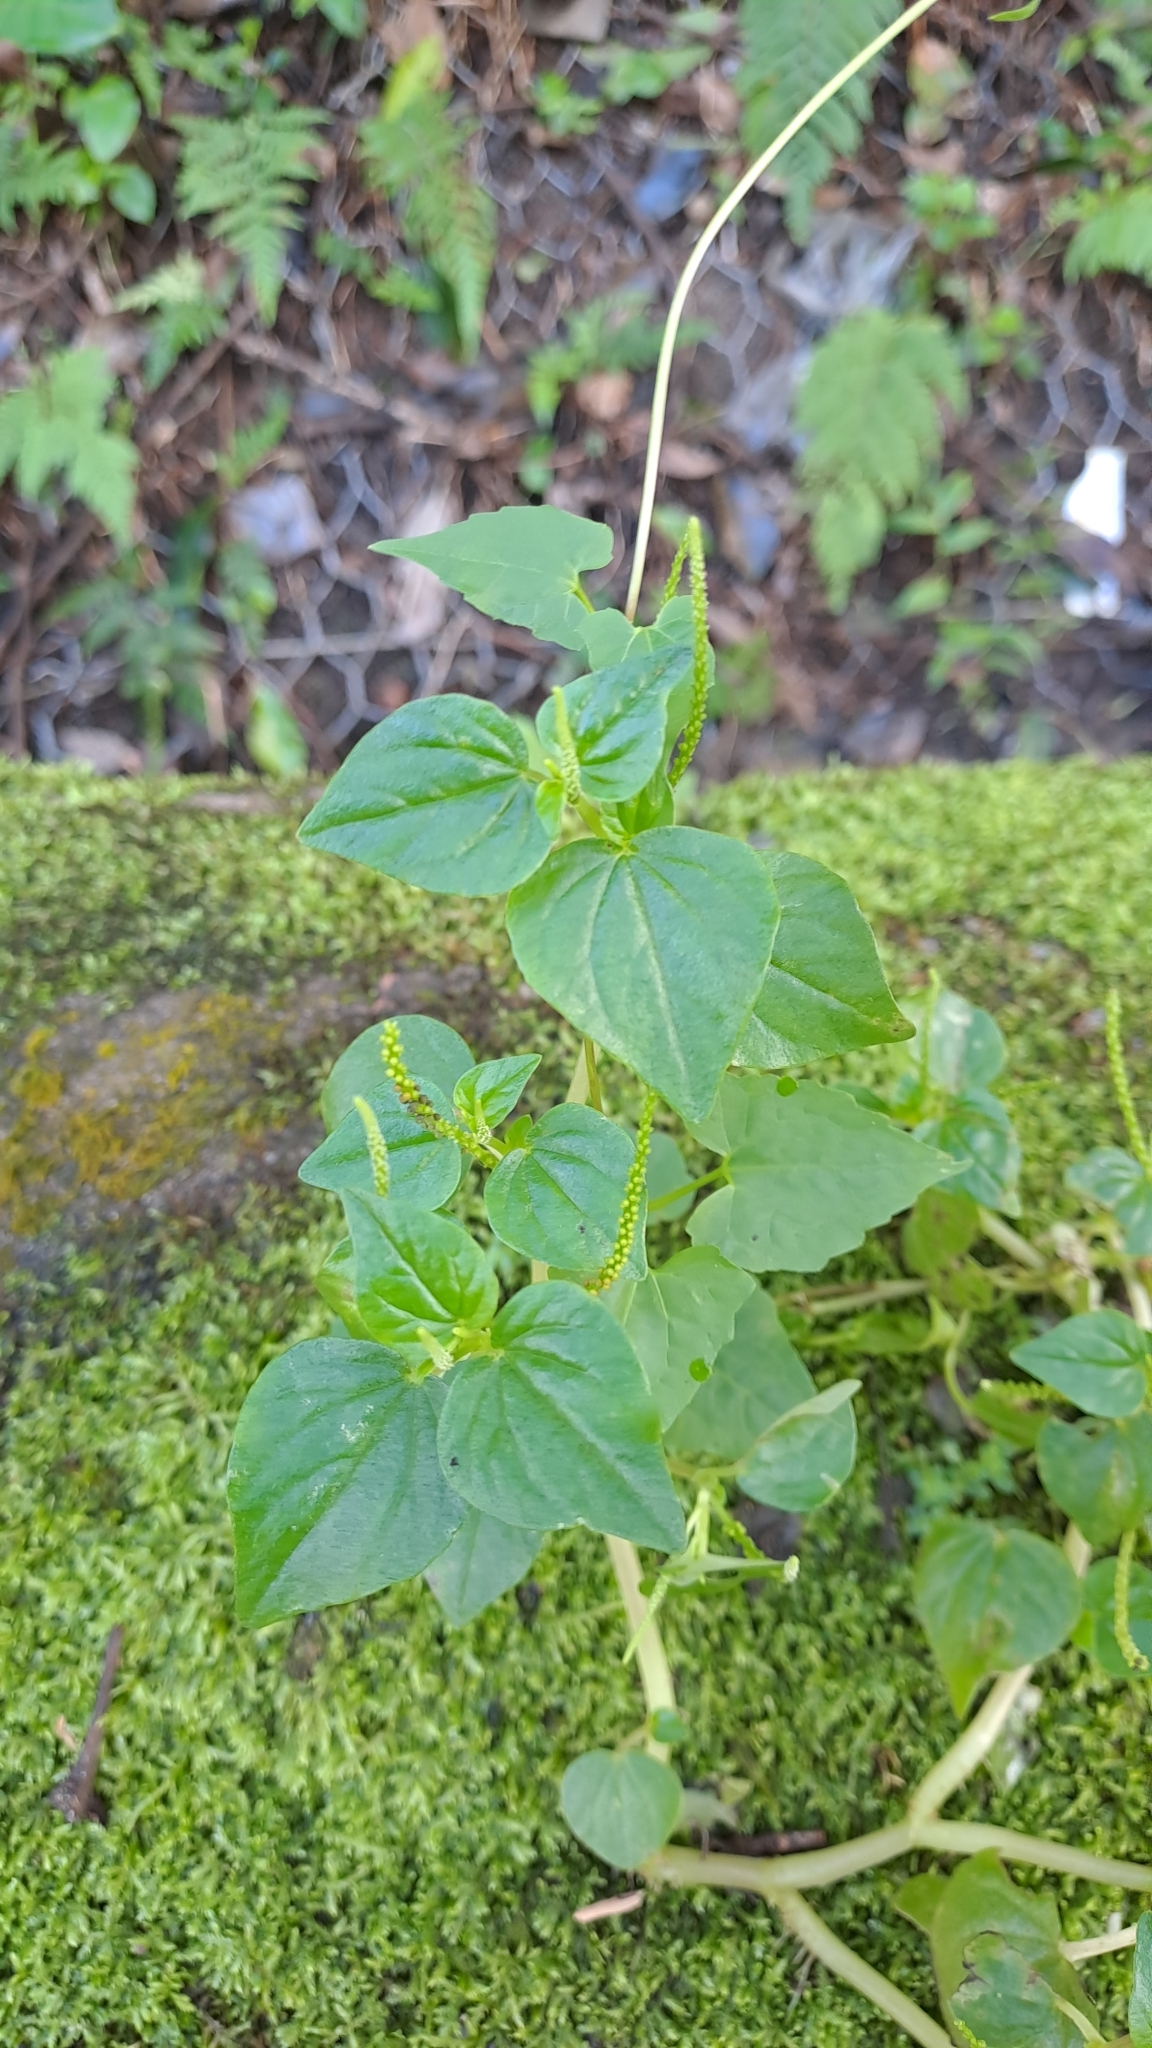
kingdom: Plantae
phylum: Tracheophyta
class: Magnoliopsida
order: Piperales
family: Piperaceae
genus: Peperomia
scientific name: Peperomia pellucida
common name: Man to man
